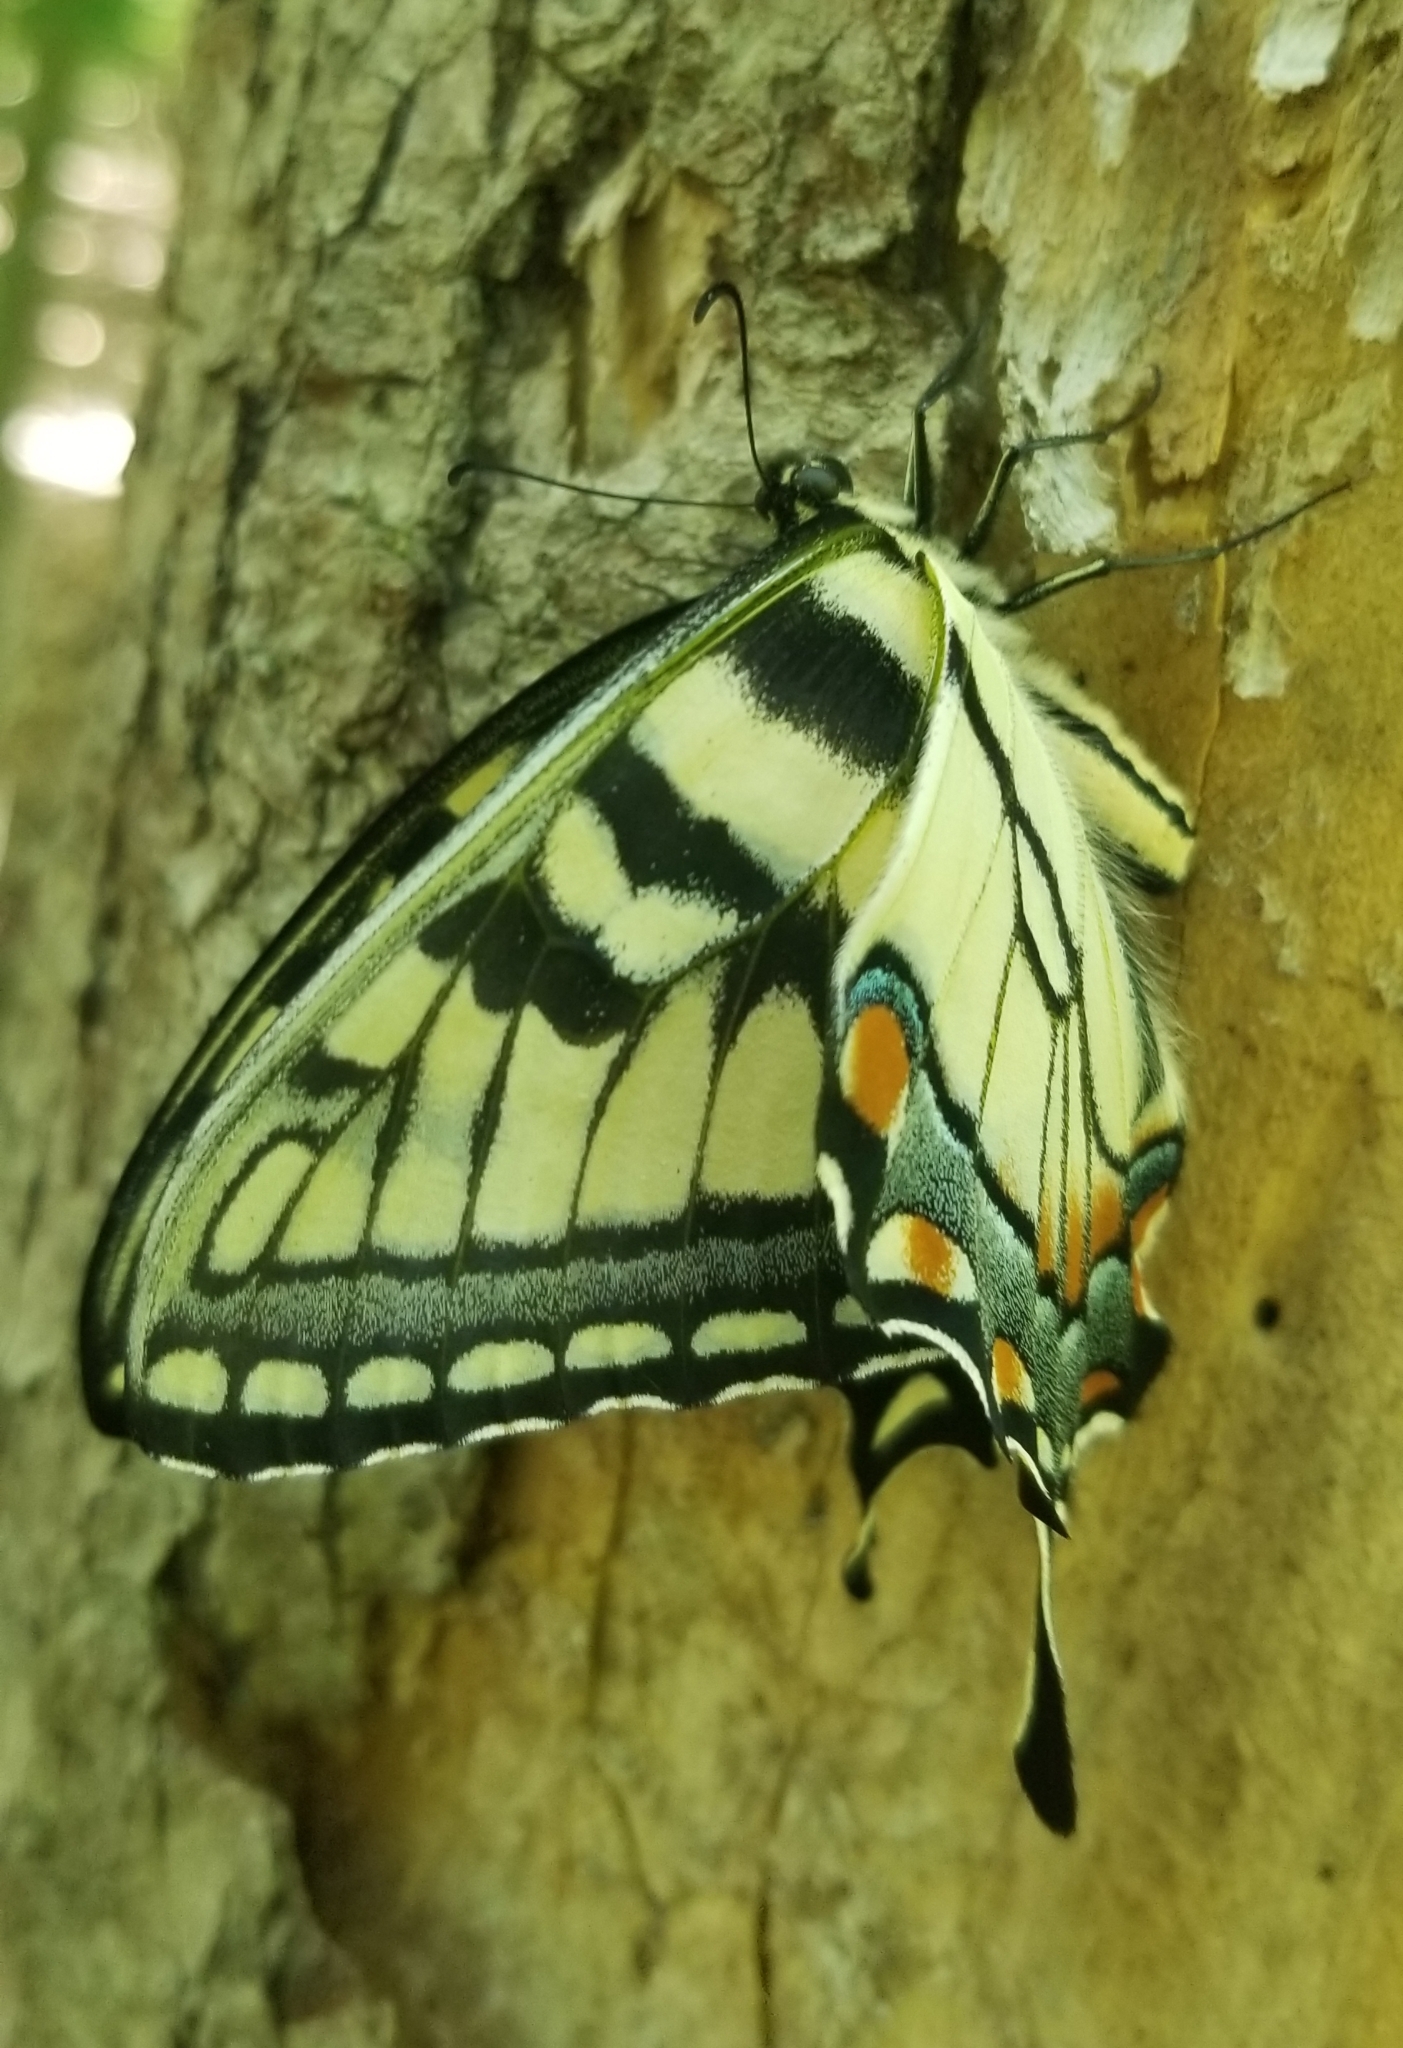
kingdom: Animalia
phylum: Arthropoda
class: Insecta
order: Lepidoptera
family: Papilionidae
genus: Papilio
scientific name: Papilio glaucus
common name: Tiger swallowtail
